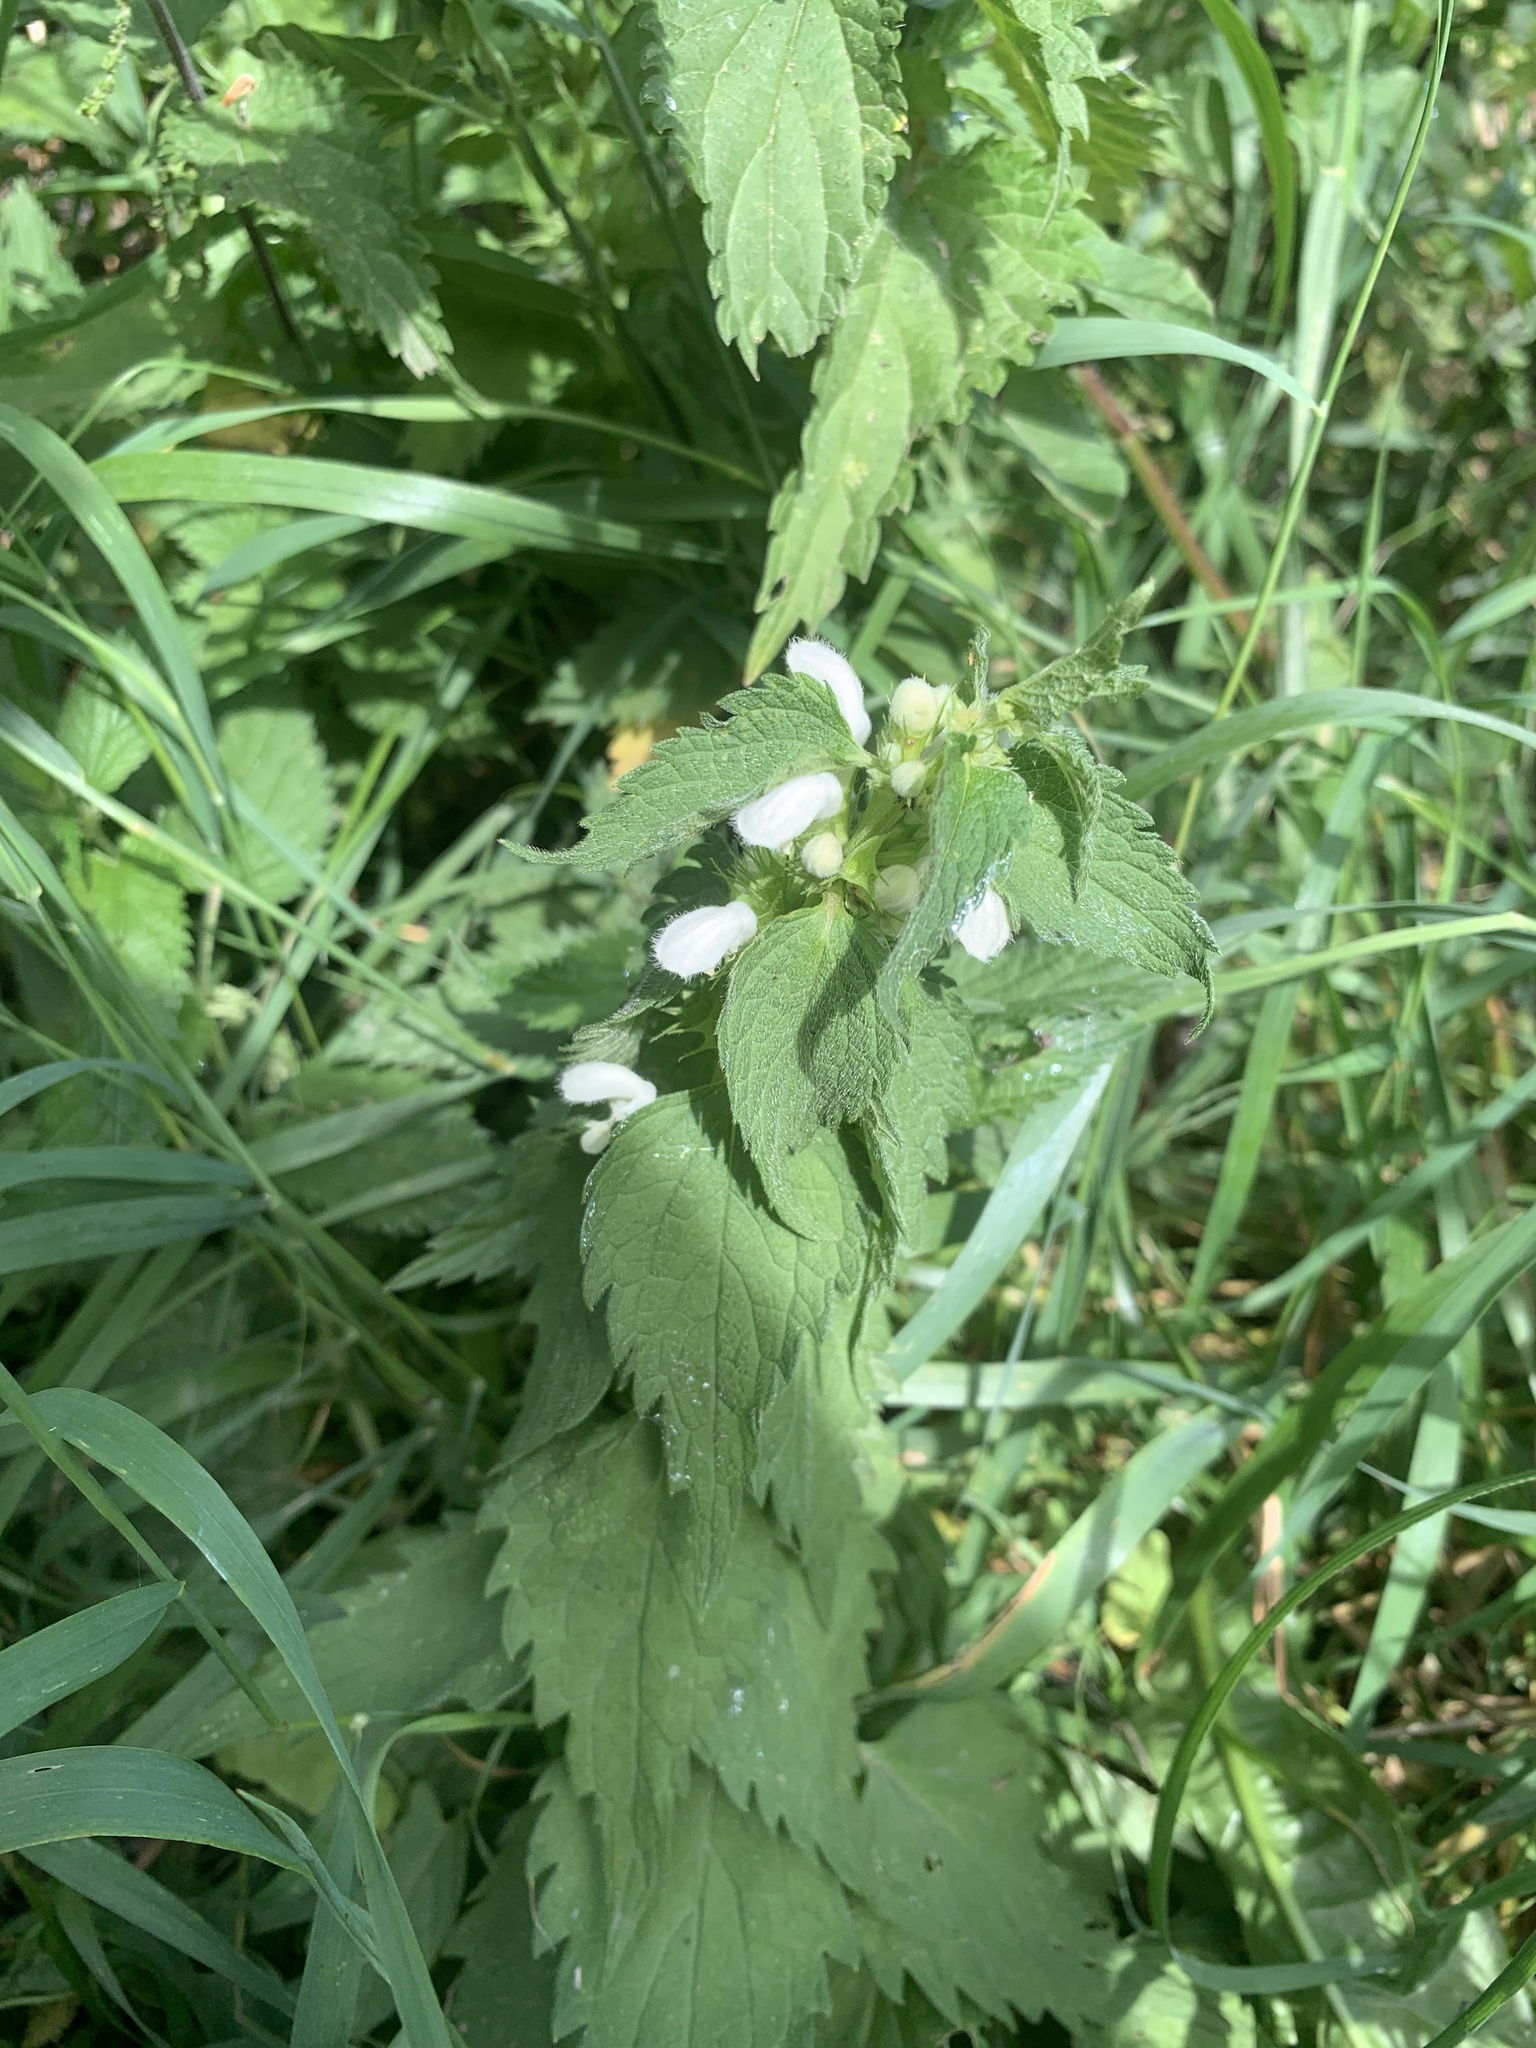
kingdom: Plantae
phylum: Tracheophyta
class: Magnoliopsida
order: Lamiales
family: Lamiaceae
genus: Lamium
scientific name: Lamium album
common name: White dead-nettle
